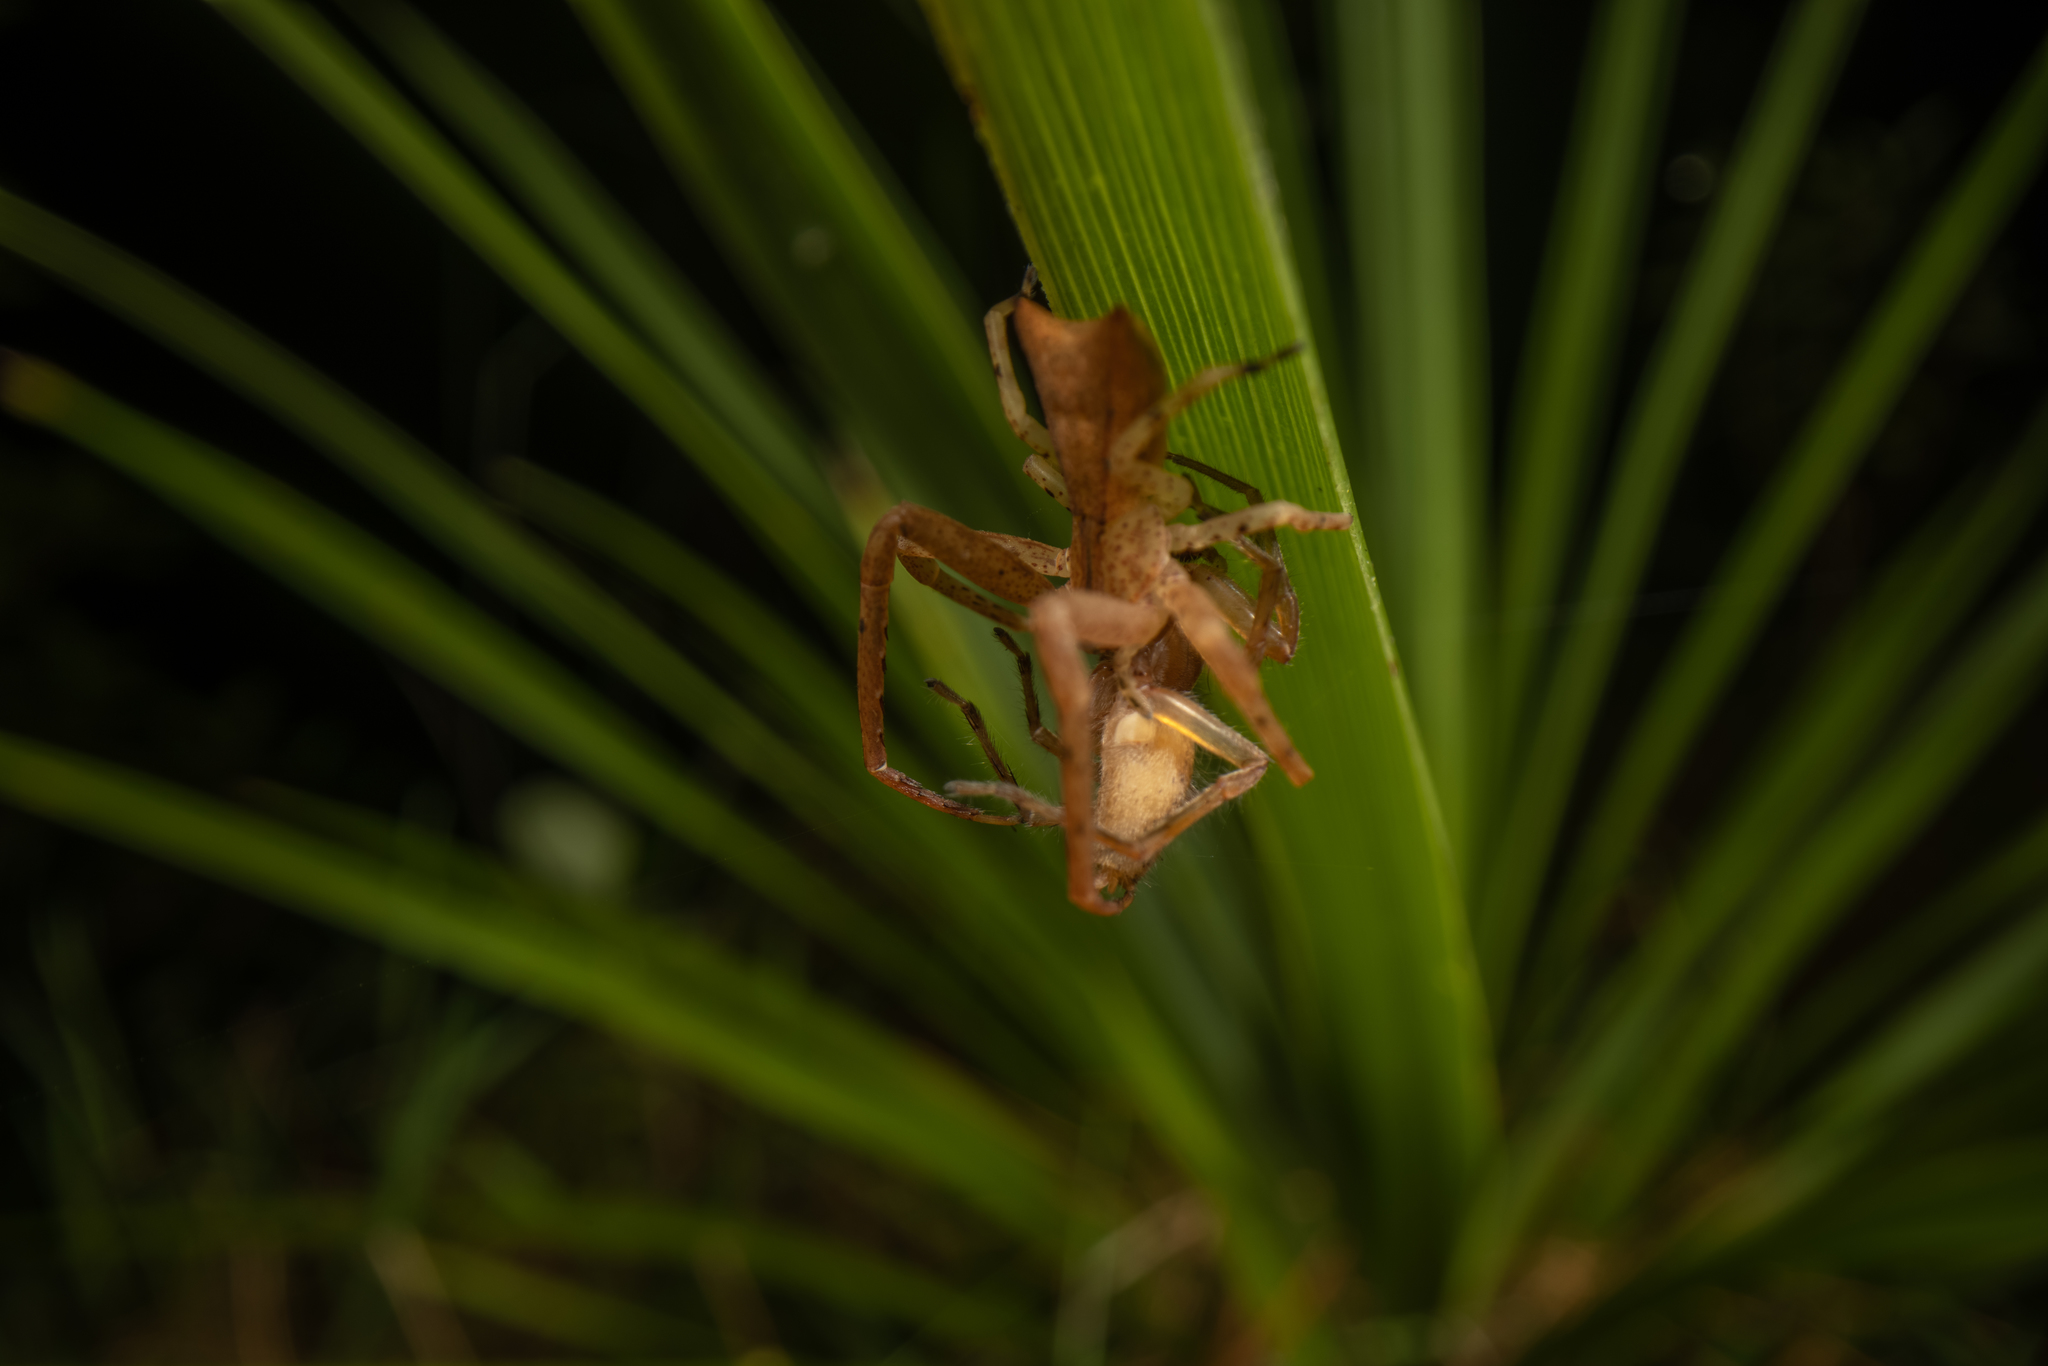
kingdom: Animalia
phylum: Arthropoda
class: Arachnida
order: Araneae
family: Thomisidae
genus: Sidymella
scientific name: Sidymella longipes
